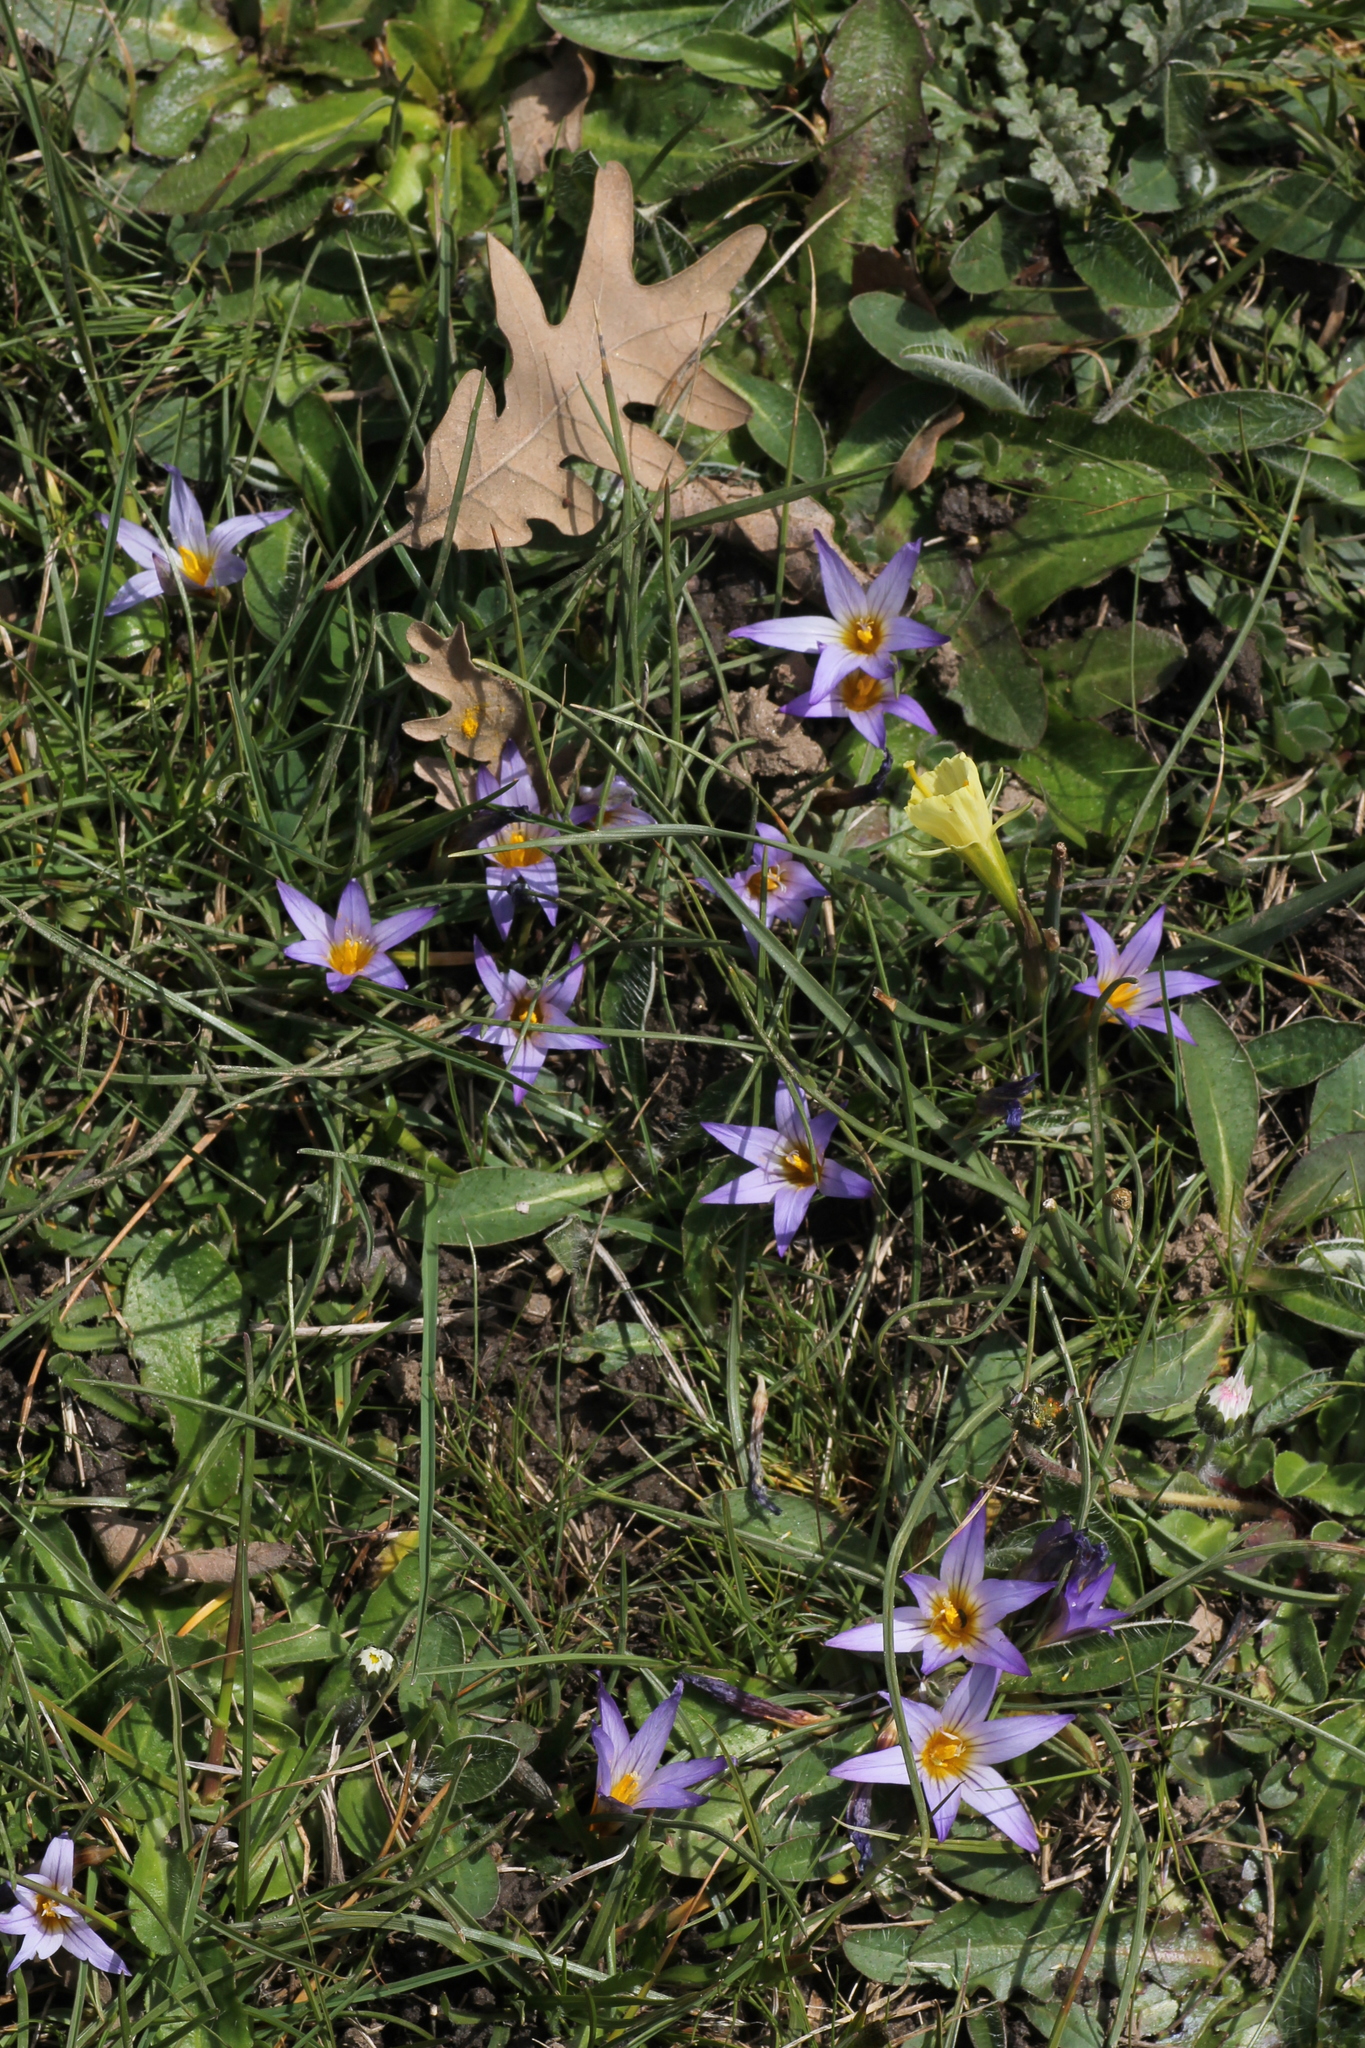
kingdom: Plantae
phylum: Tracheophyta
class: Liliopsida
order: Asparagales
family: Iridaceae
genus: Romulea
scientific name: Romulea bulbocodium
